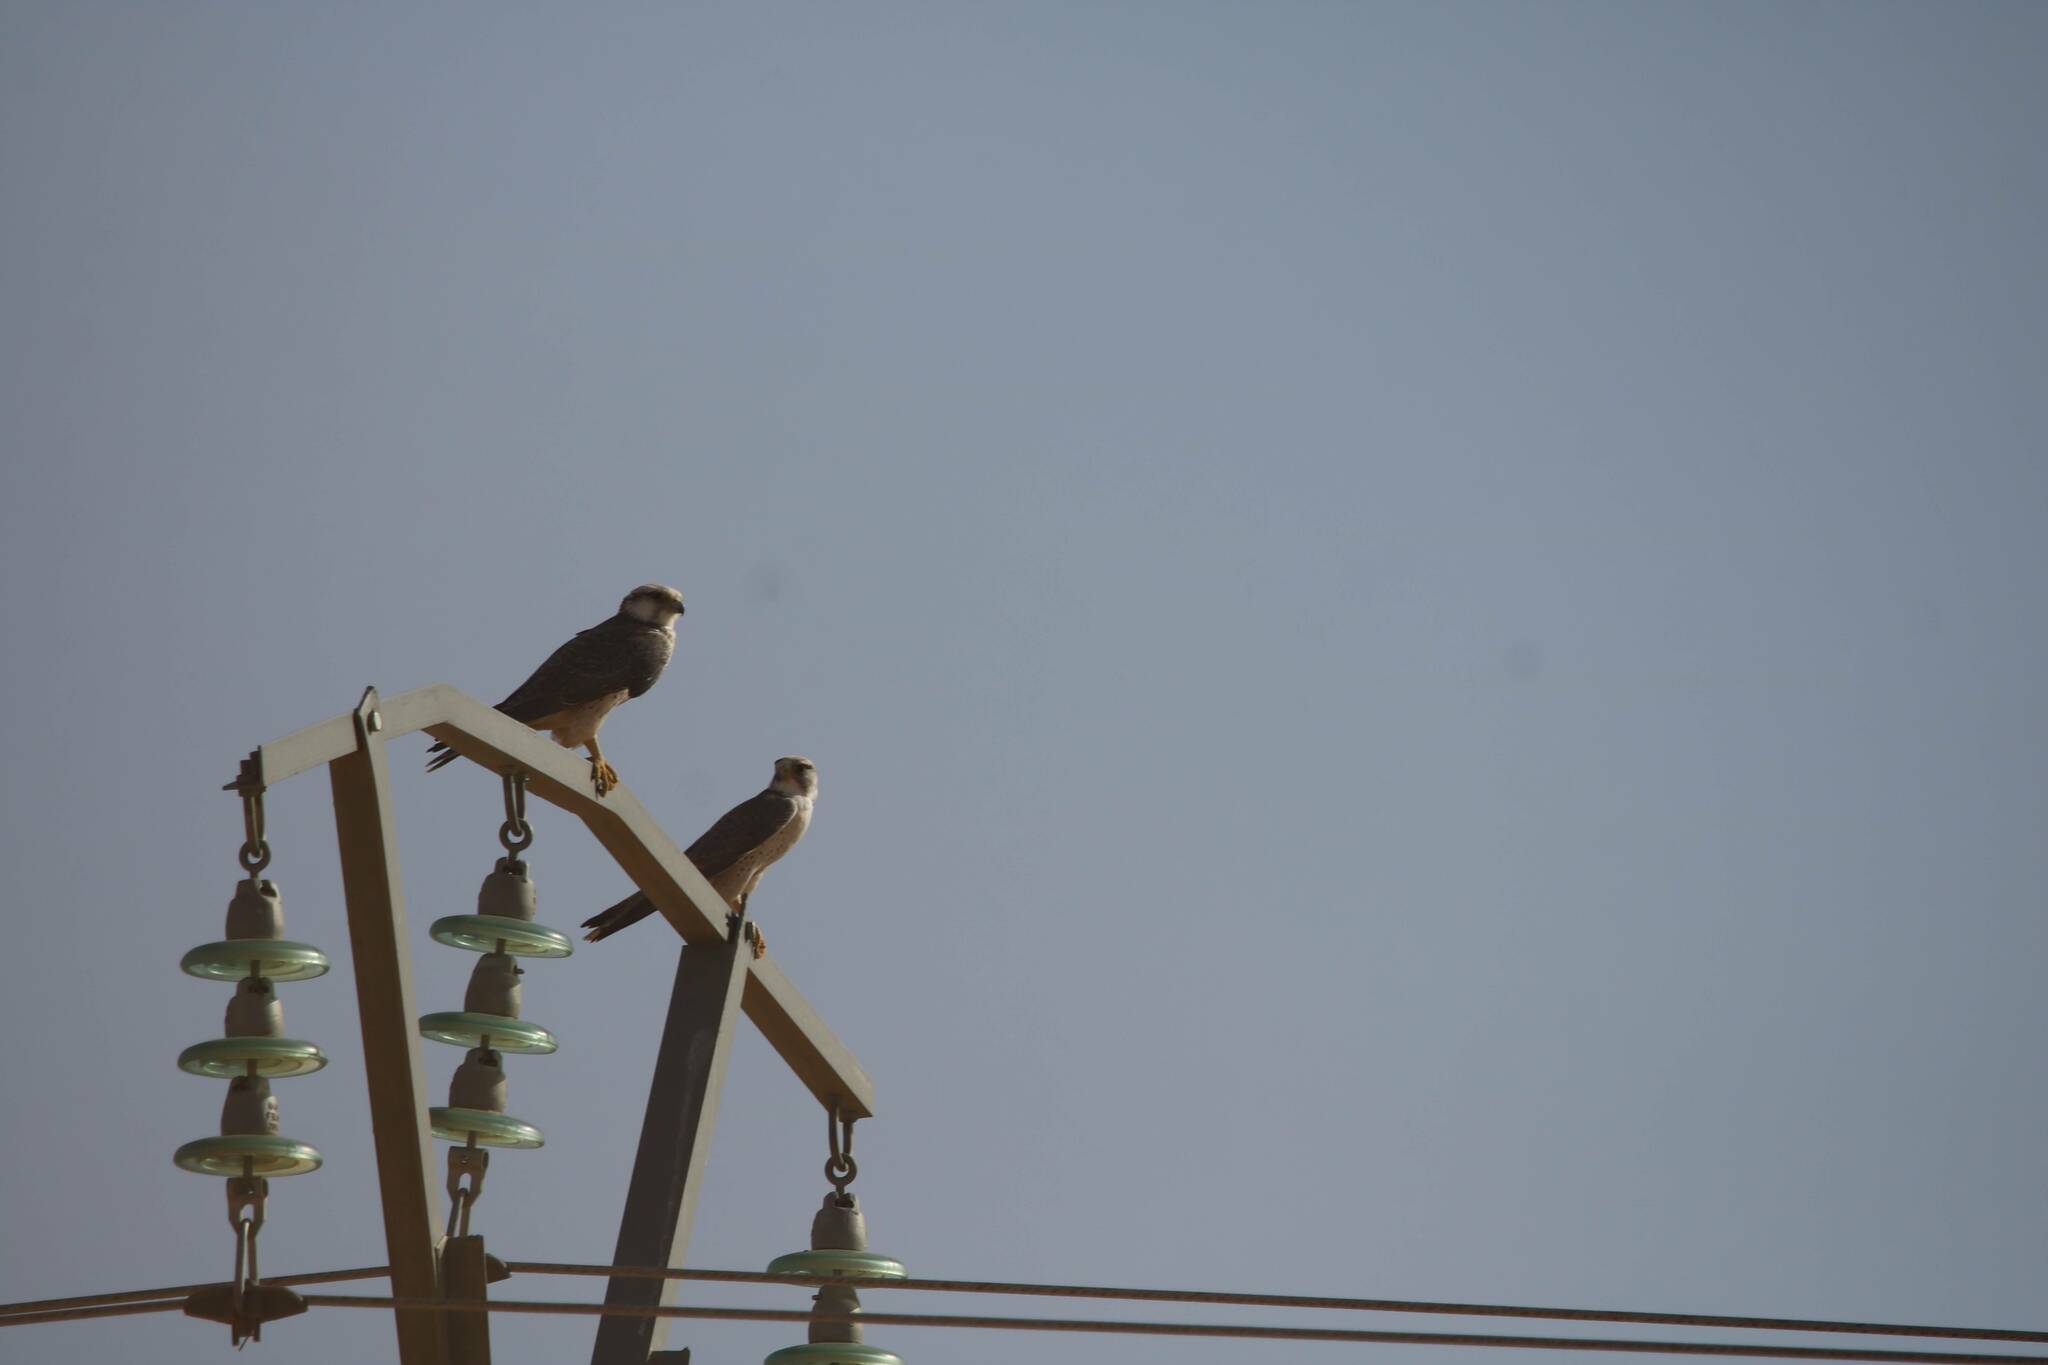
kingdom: Animalia
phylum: Chordata
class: Aves
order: Falconiformes
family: Falconidae
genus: Falco
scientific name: Falco biarmicus
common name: Lanner falcon
